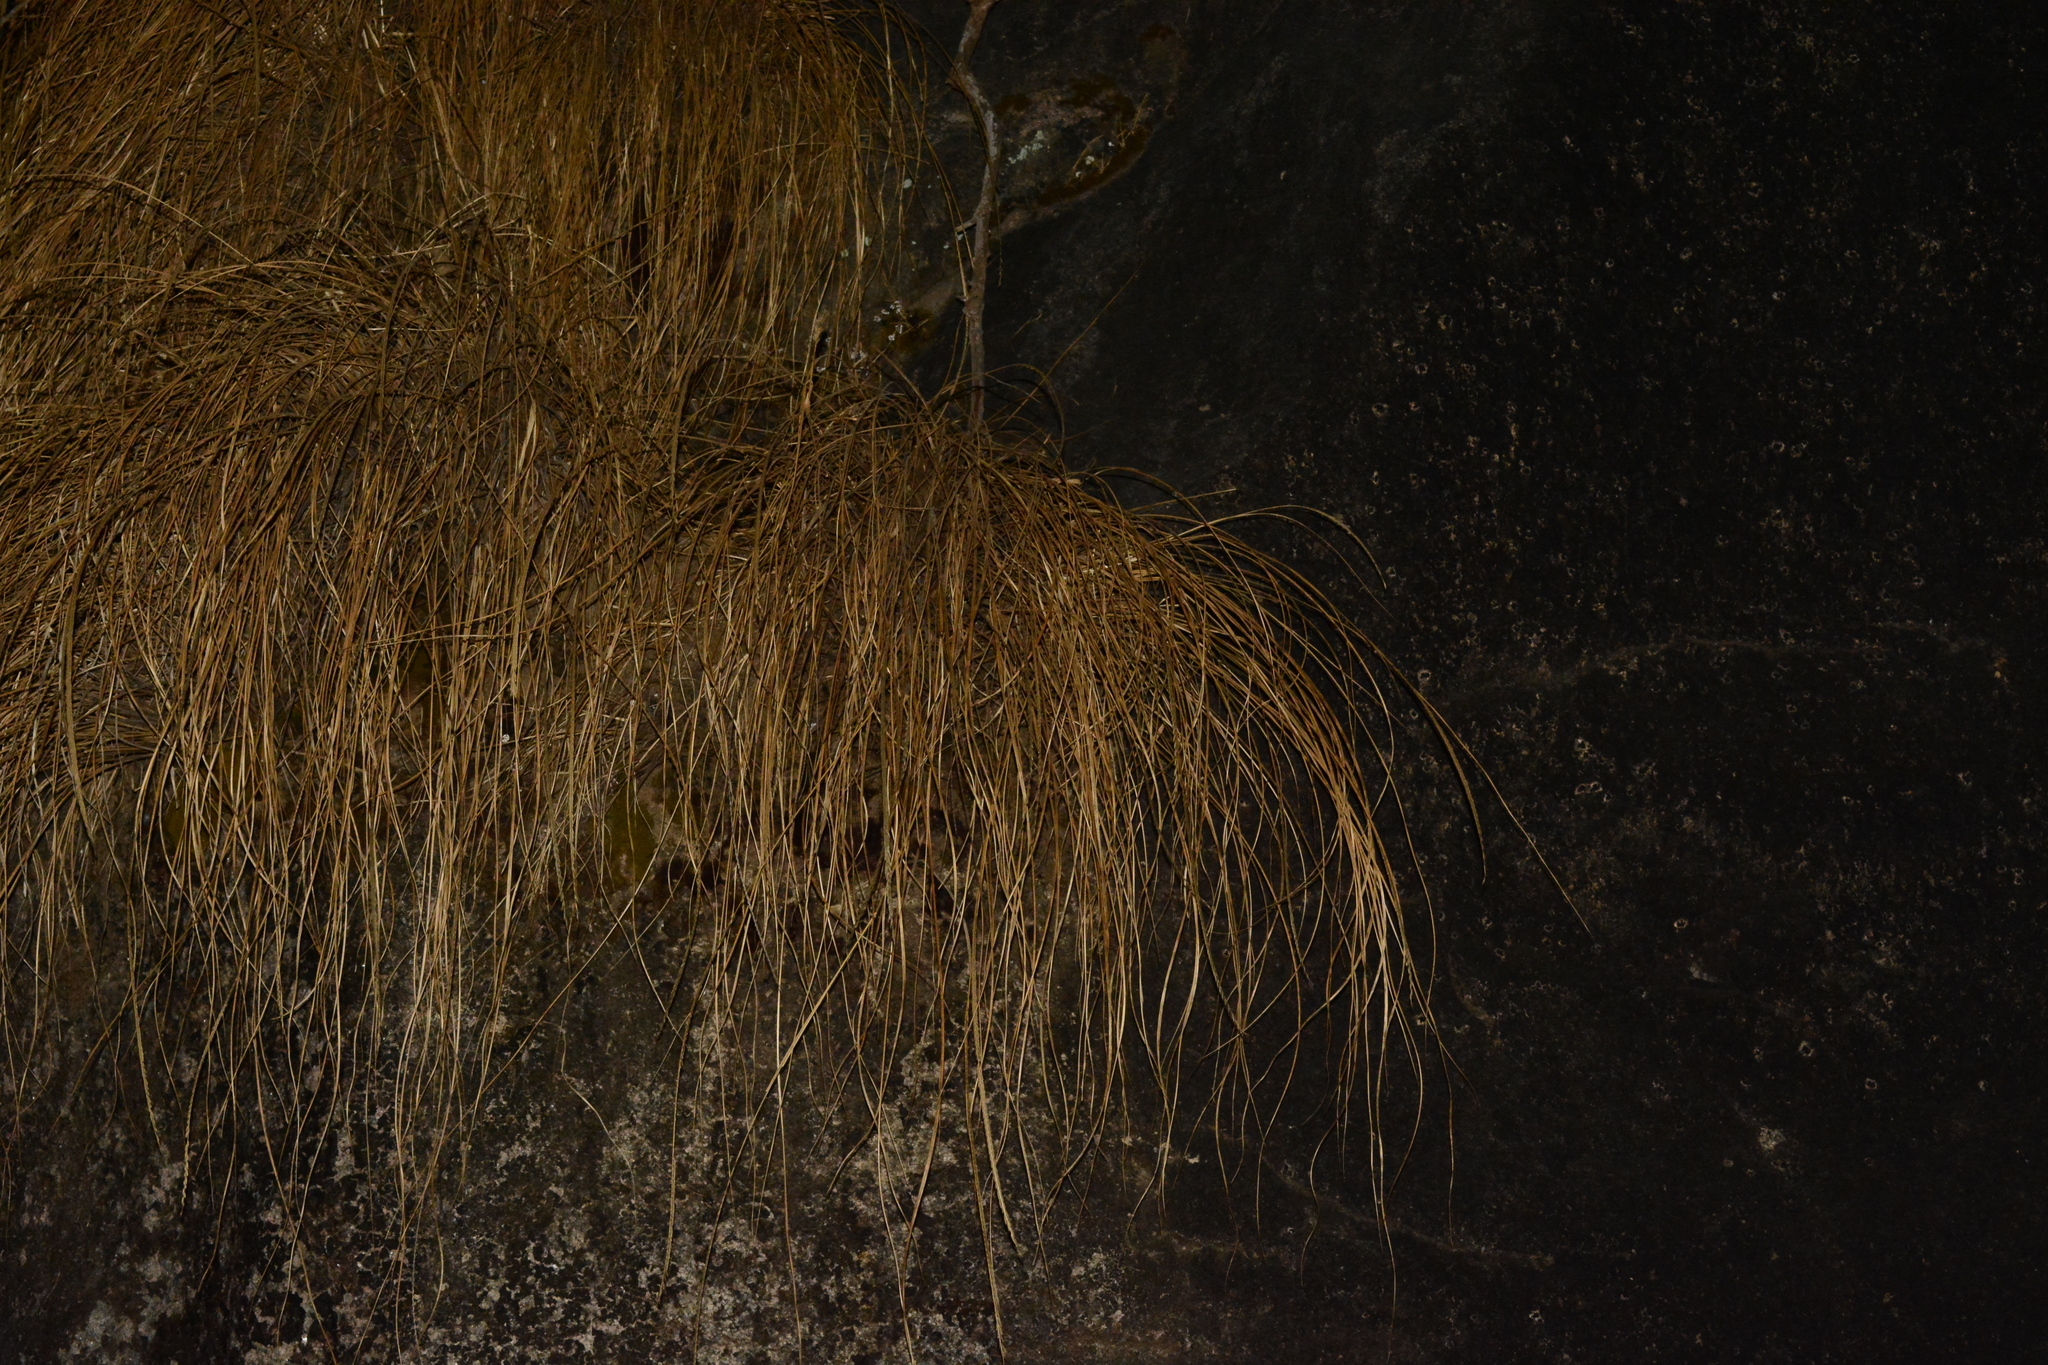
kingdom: Plantae
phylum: Tracheophyta
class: Liliopsida
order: Poales
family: Poaceae
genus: Tripogon
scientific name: Tripogon lisboae
